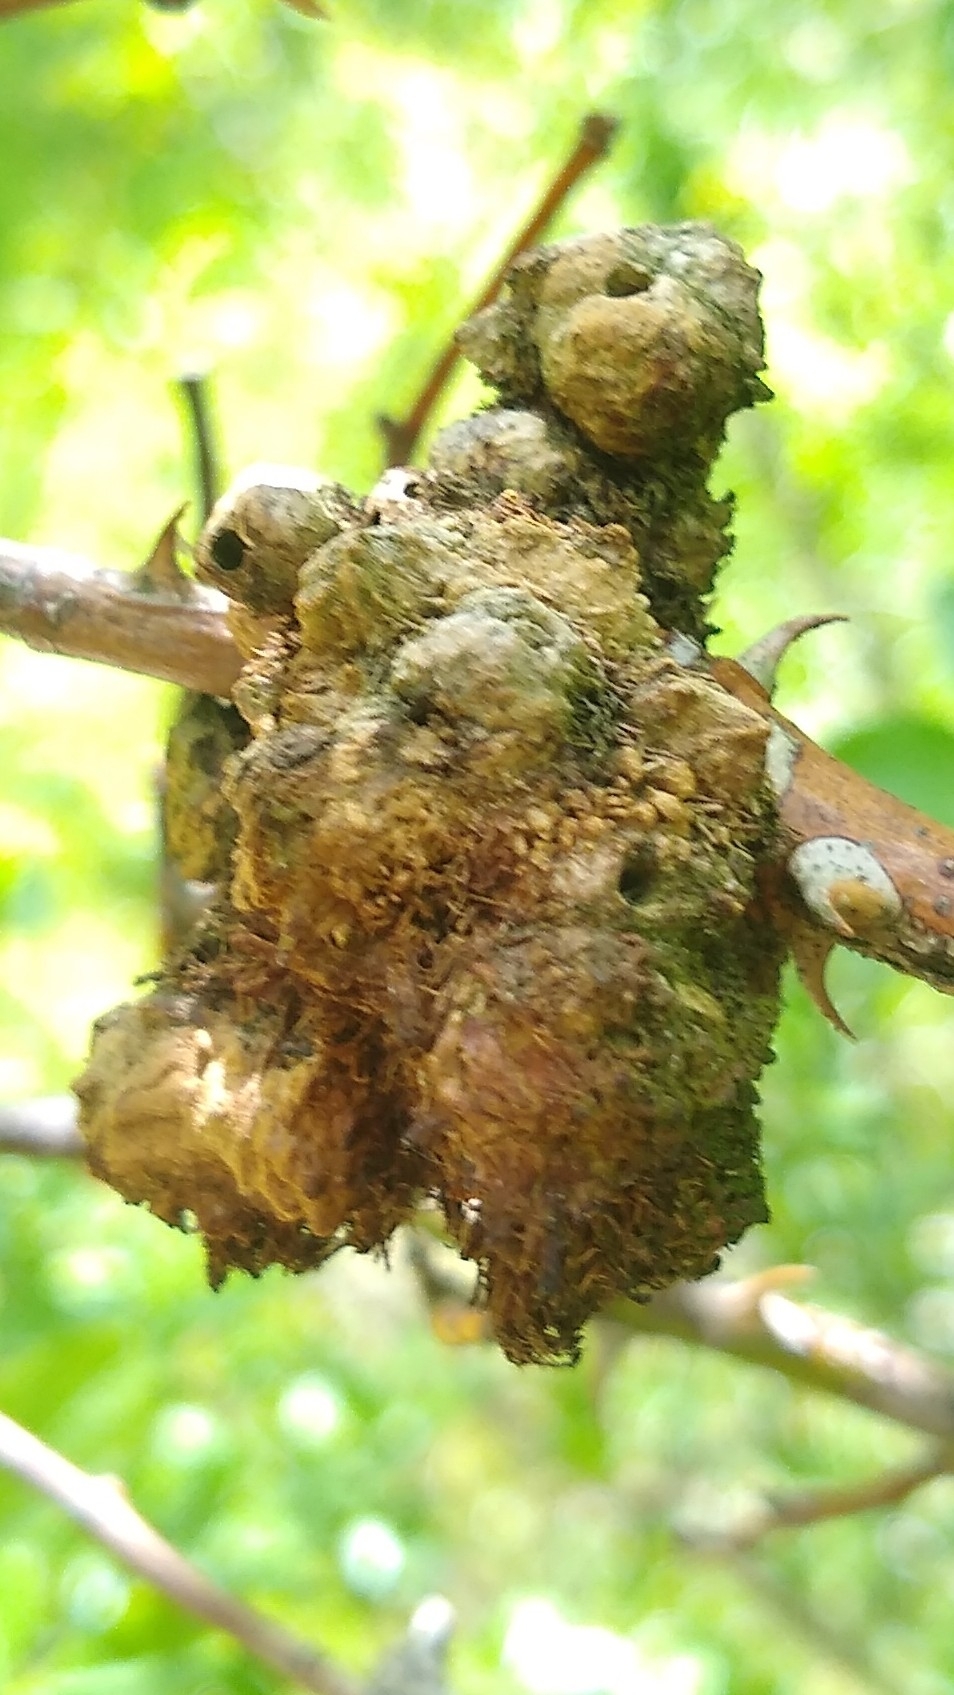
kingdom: Animalia
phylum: Arthropoda
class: Insecta
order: Hymenoptera
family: Cynipidae
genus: Diplolepis
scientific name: Diplolepis rosae
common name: Bedeguar gall
